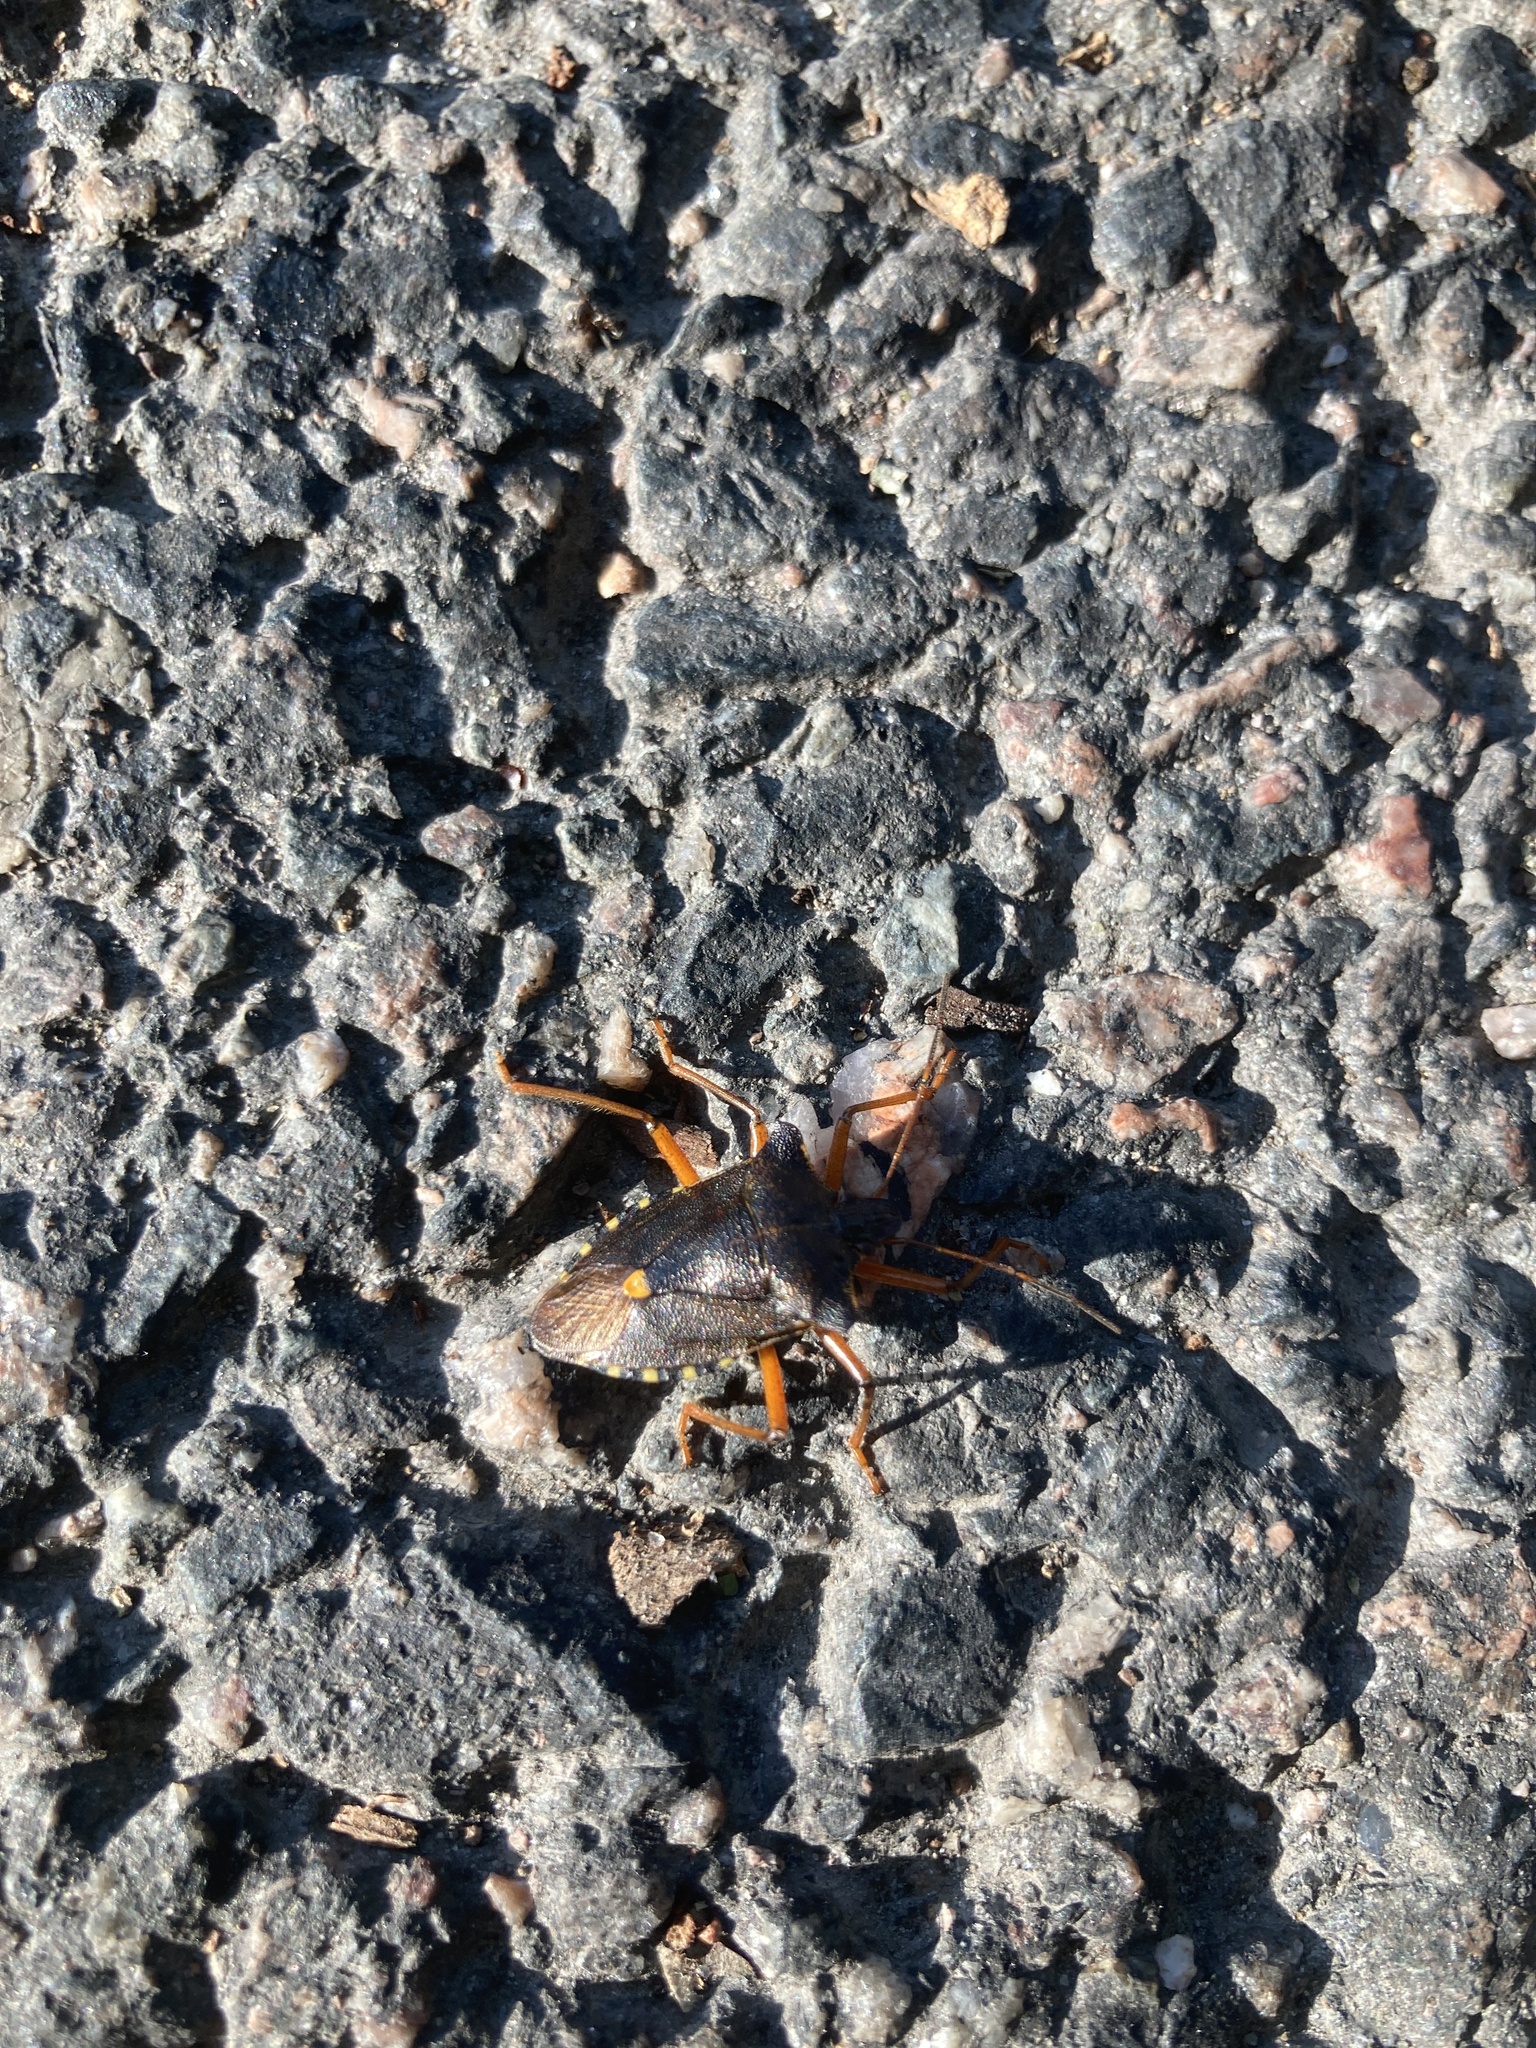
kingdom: Animalia
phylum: Arthropoda
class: Insecta
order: Hemiptera
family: Pentatomidae
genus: Pentatoma
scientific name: Pentatoma rufipes
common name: Forest bug
